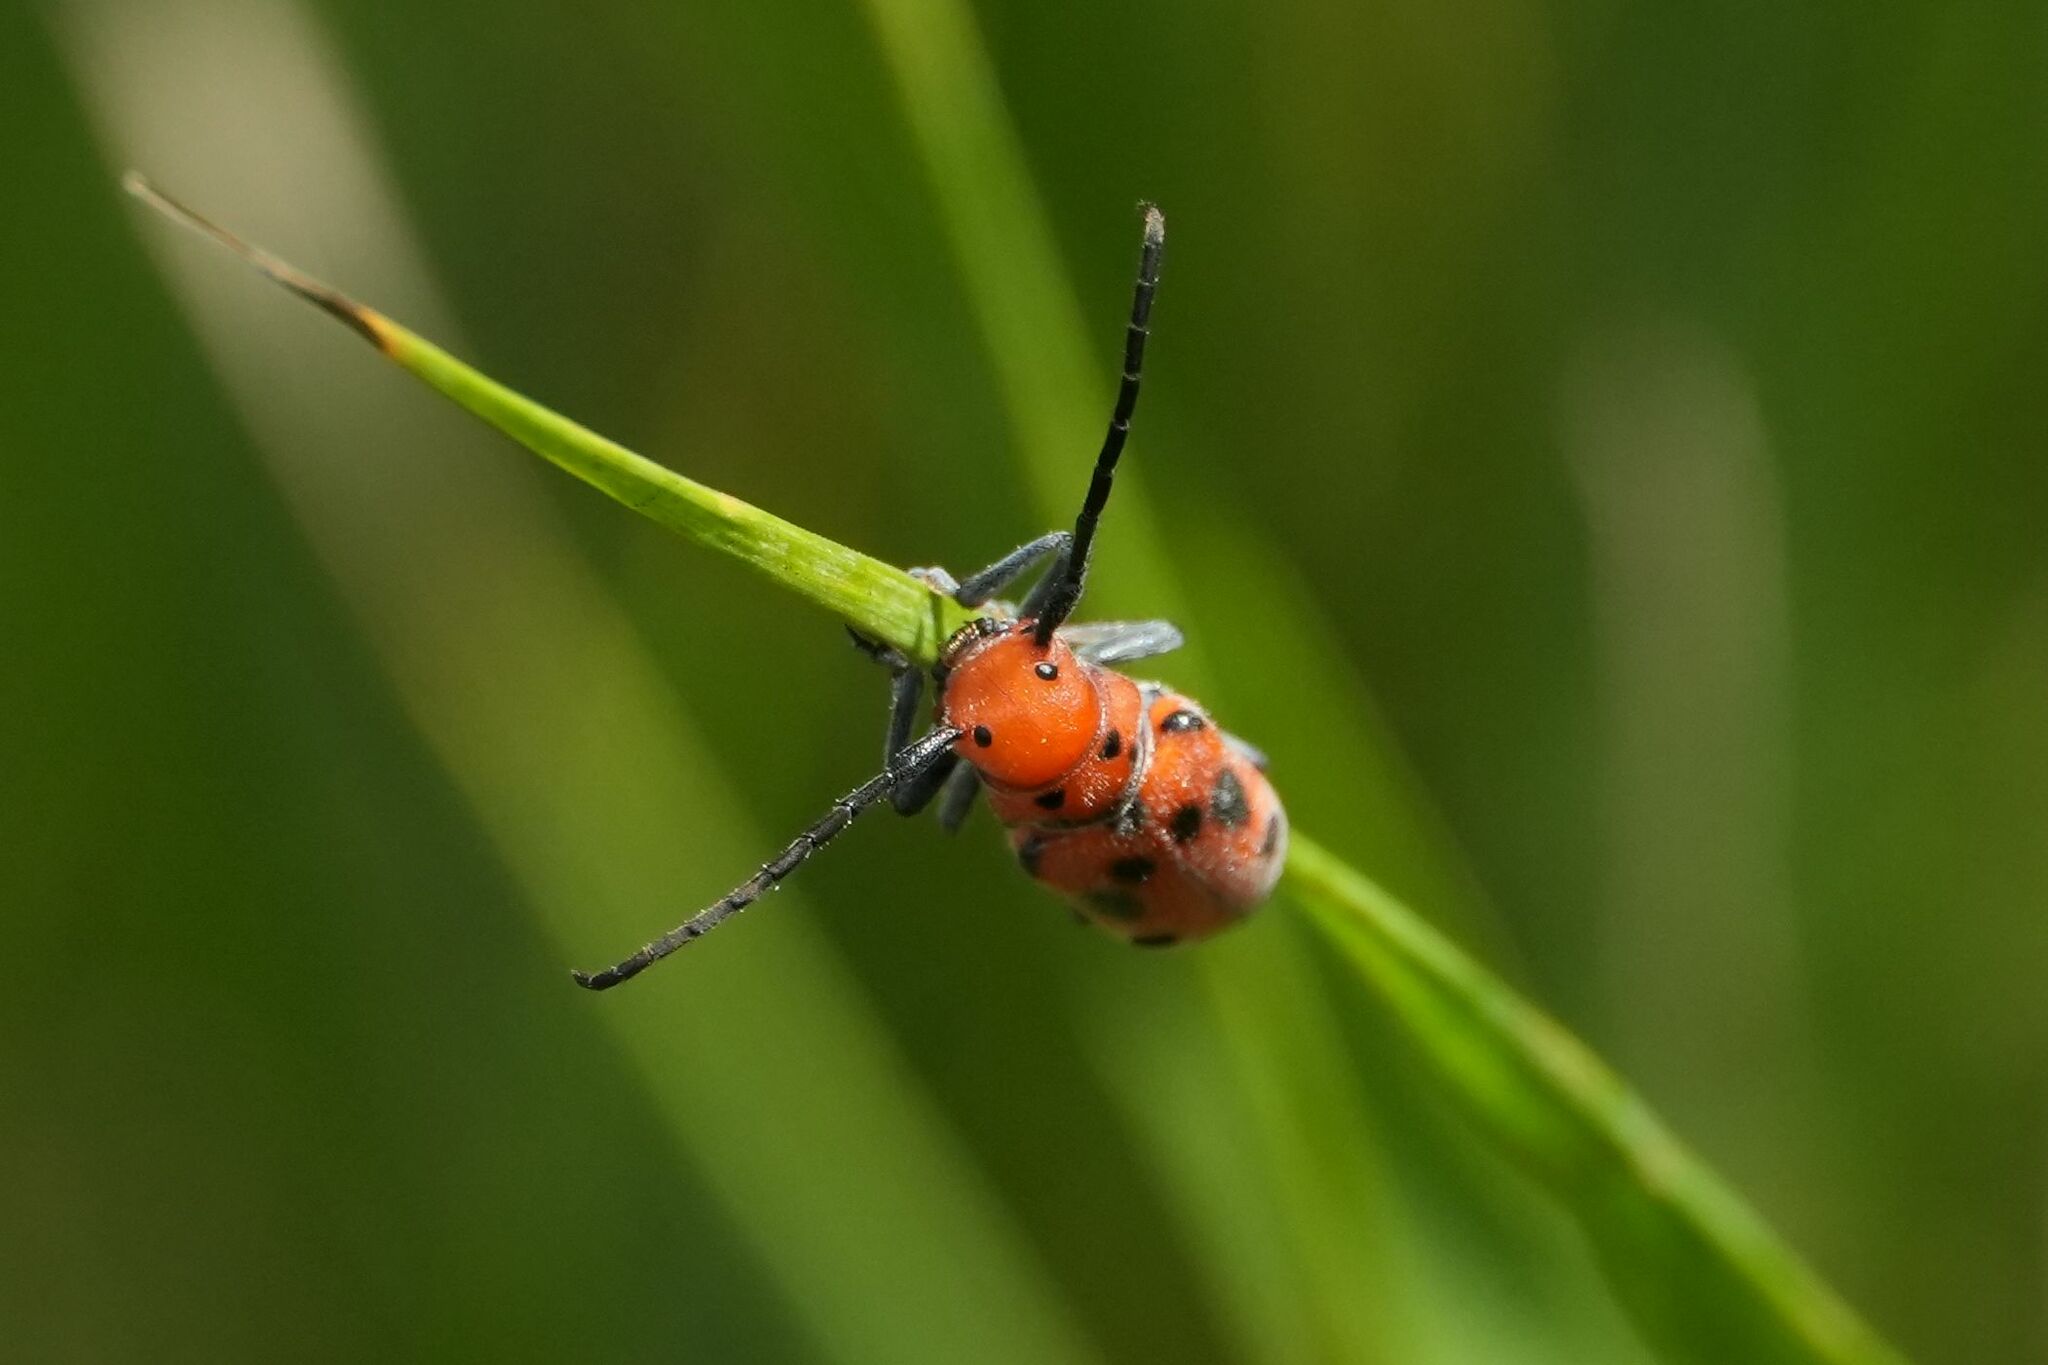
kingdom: Animalia
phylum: Arthropoda
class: Insecta
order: Coleoptera
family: Cerambycidae
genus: Tetraopes
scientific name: Tetraopes tetrophthalmus
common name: Red milkweed beetle
